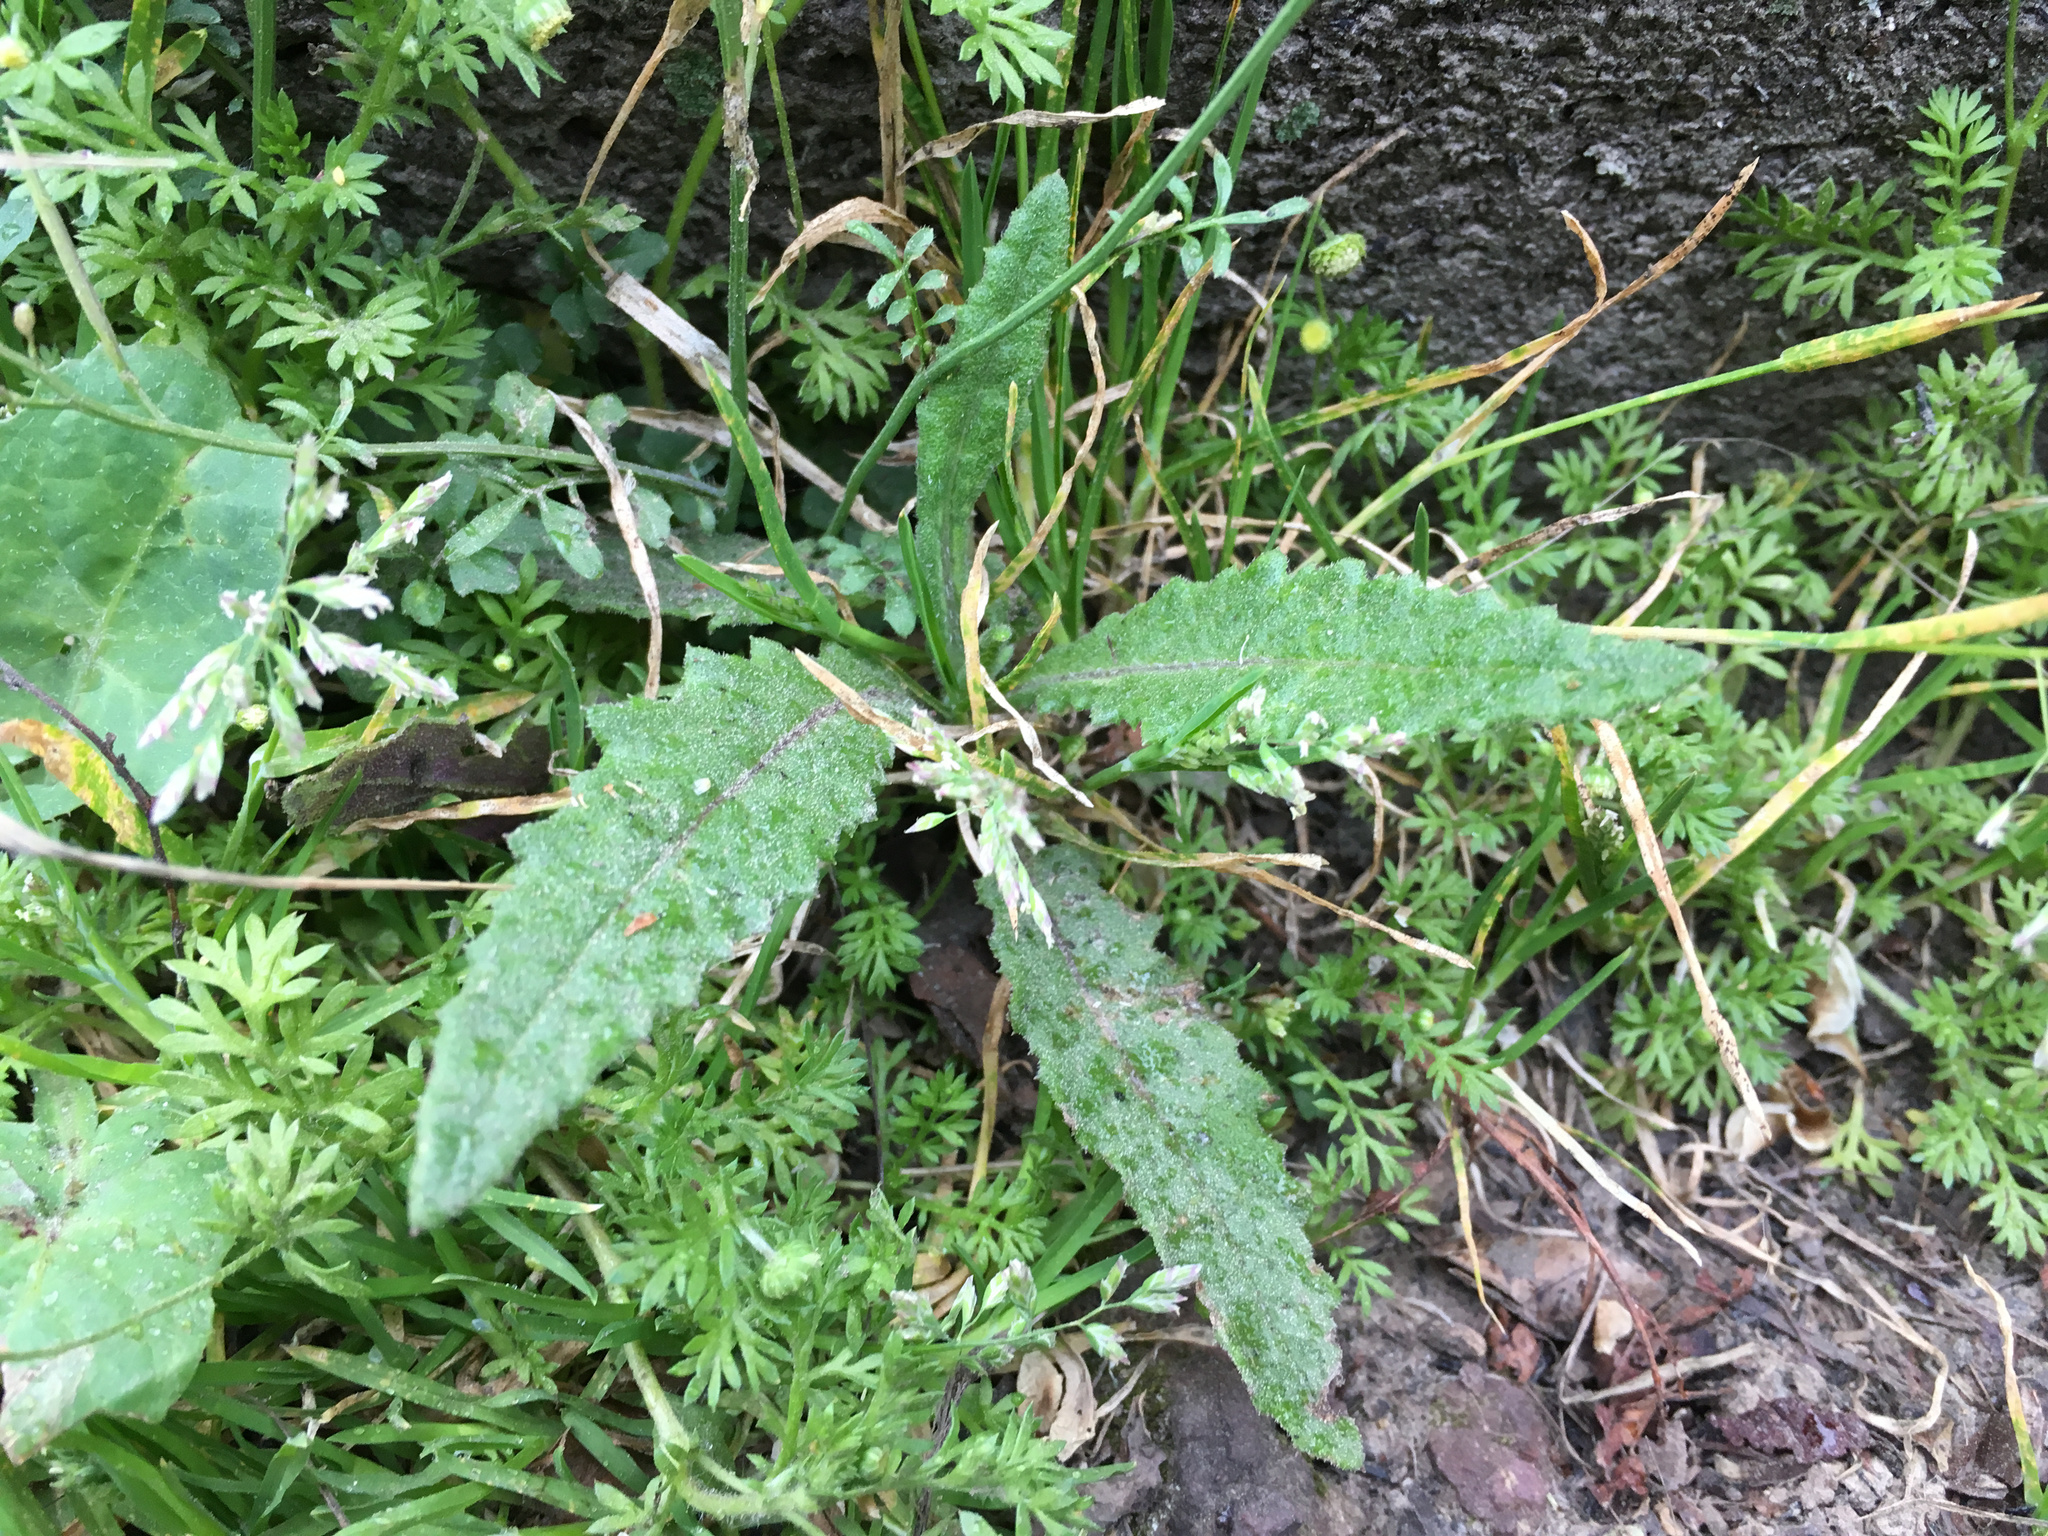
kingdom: Plantae
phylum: Tracheophyta
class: Magnoliopsida
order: Asterales
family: Asteraceae
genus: Senecio
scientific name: Senecio minimus
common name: Toothed fireweed
